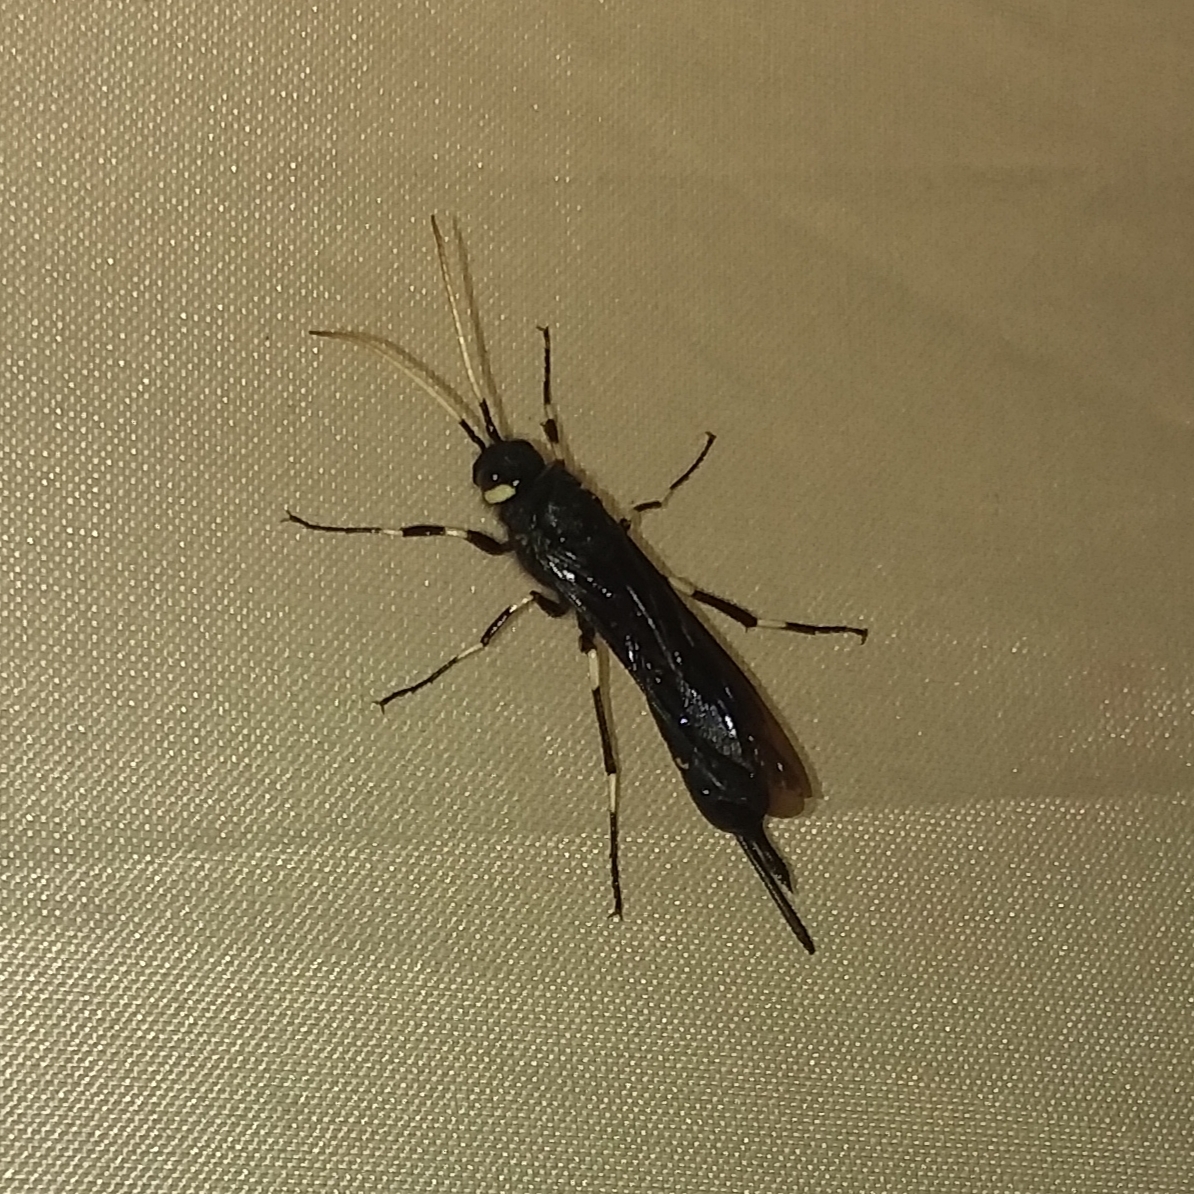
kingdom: Animalia
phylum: Arthropoda
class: Insecta
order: Hymenoptera
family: Siricidae
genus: Urocerus
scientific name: Urocerus albicornis
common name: White-horned horntail
